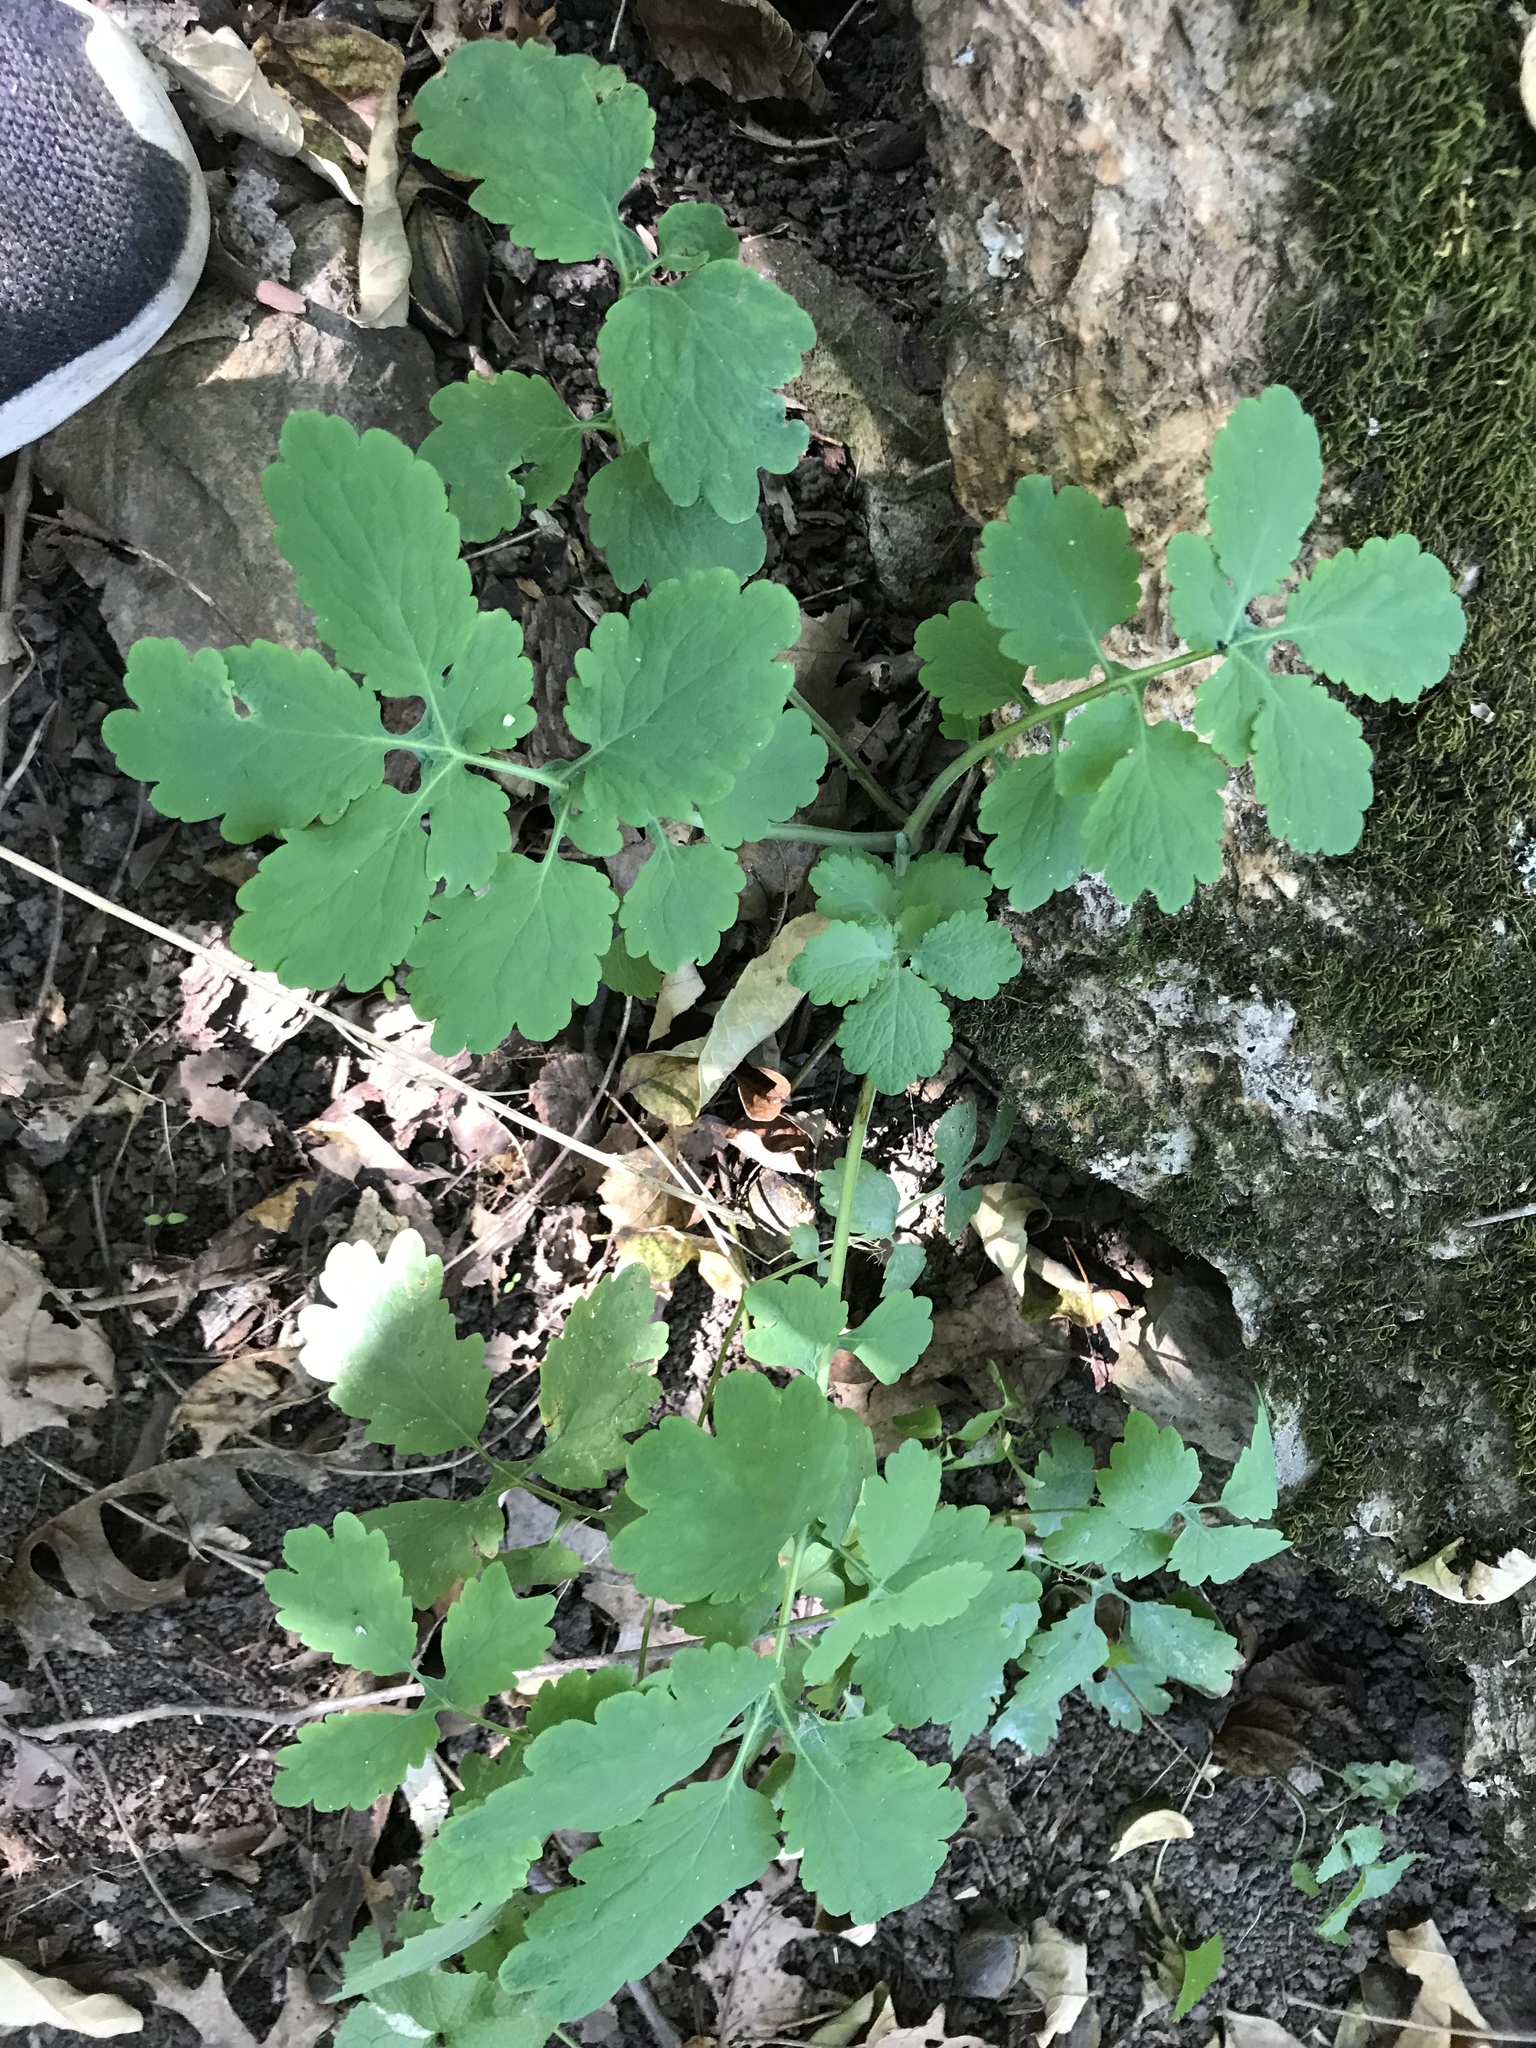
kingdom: Plantae
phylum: Tracheophyta
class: Magnoliopsida
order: Ranunculales
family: Papaveraceae
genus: Chelidonium
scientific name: Chelidonium majus
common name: Greater celandine
